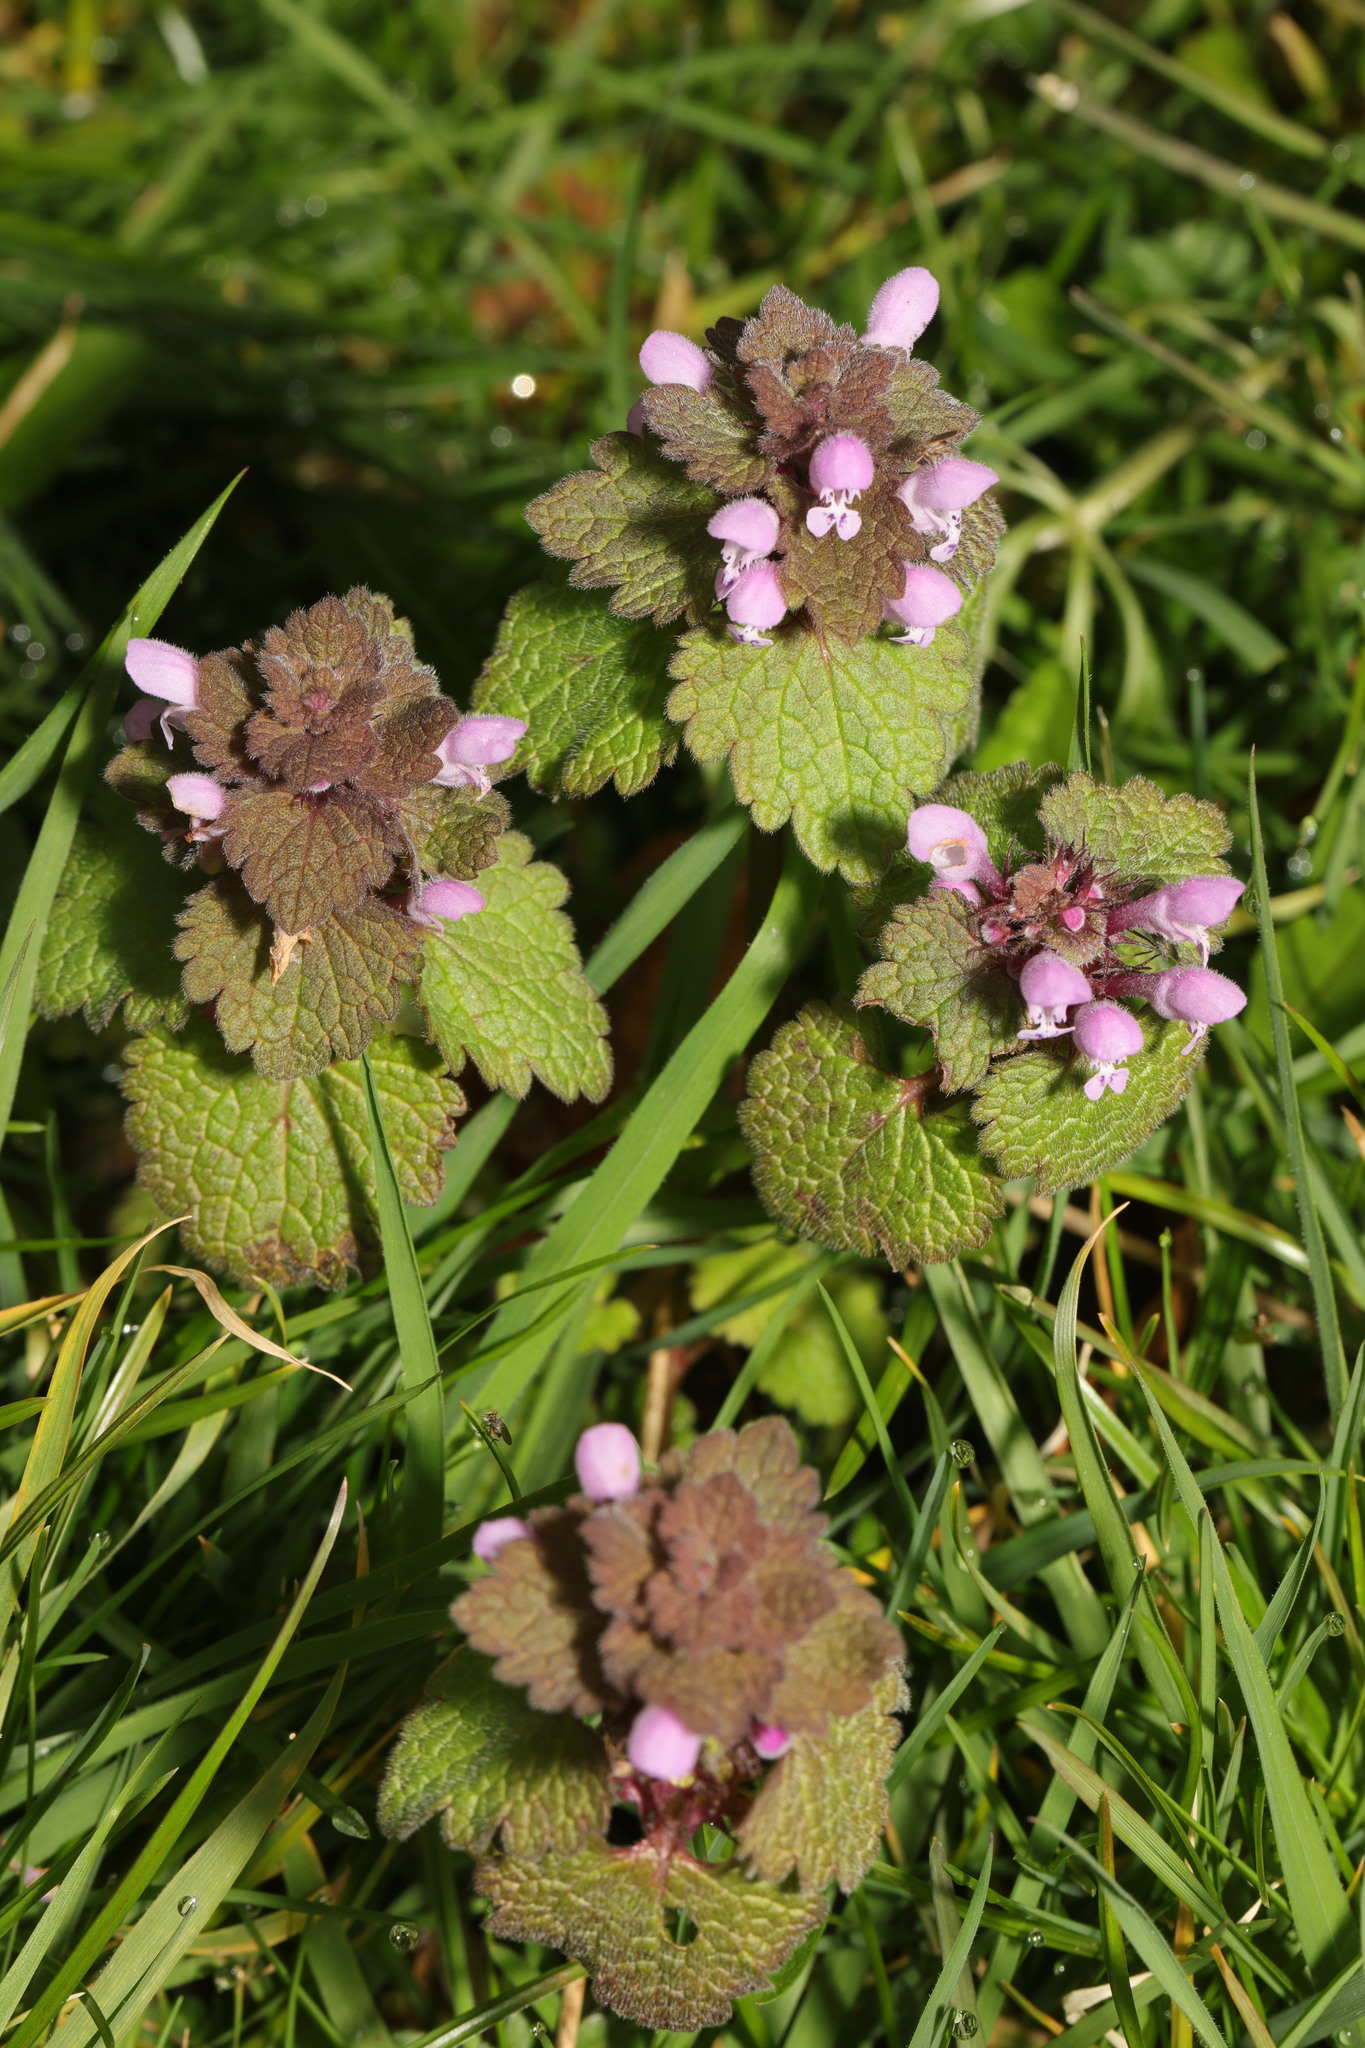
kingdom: Plantae
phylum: Tracheophyta
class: Magnoliopsida
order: Lamiales
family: Lamiaceae
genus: Lamium
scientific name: Lamium purpureum
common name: Red dead-nettle
